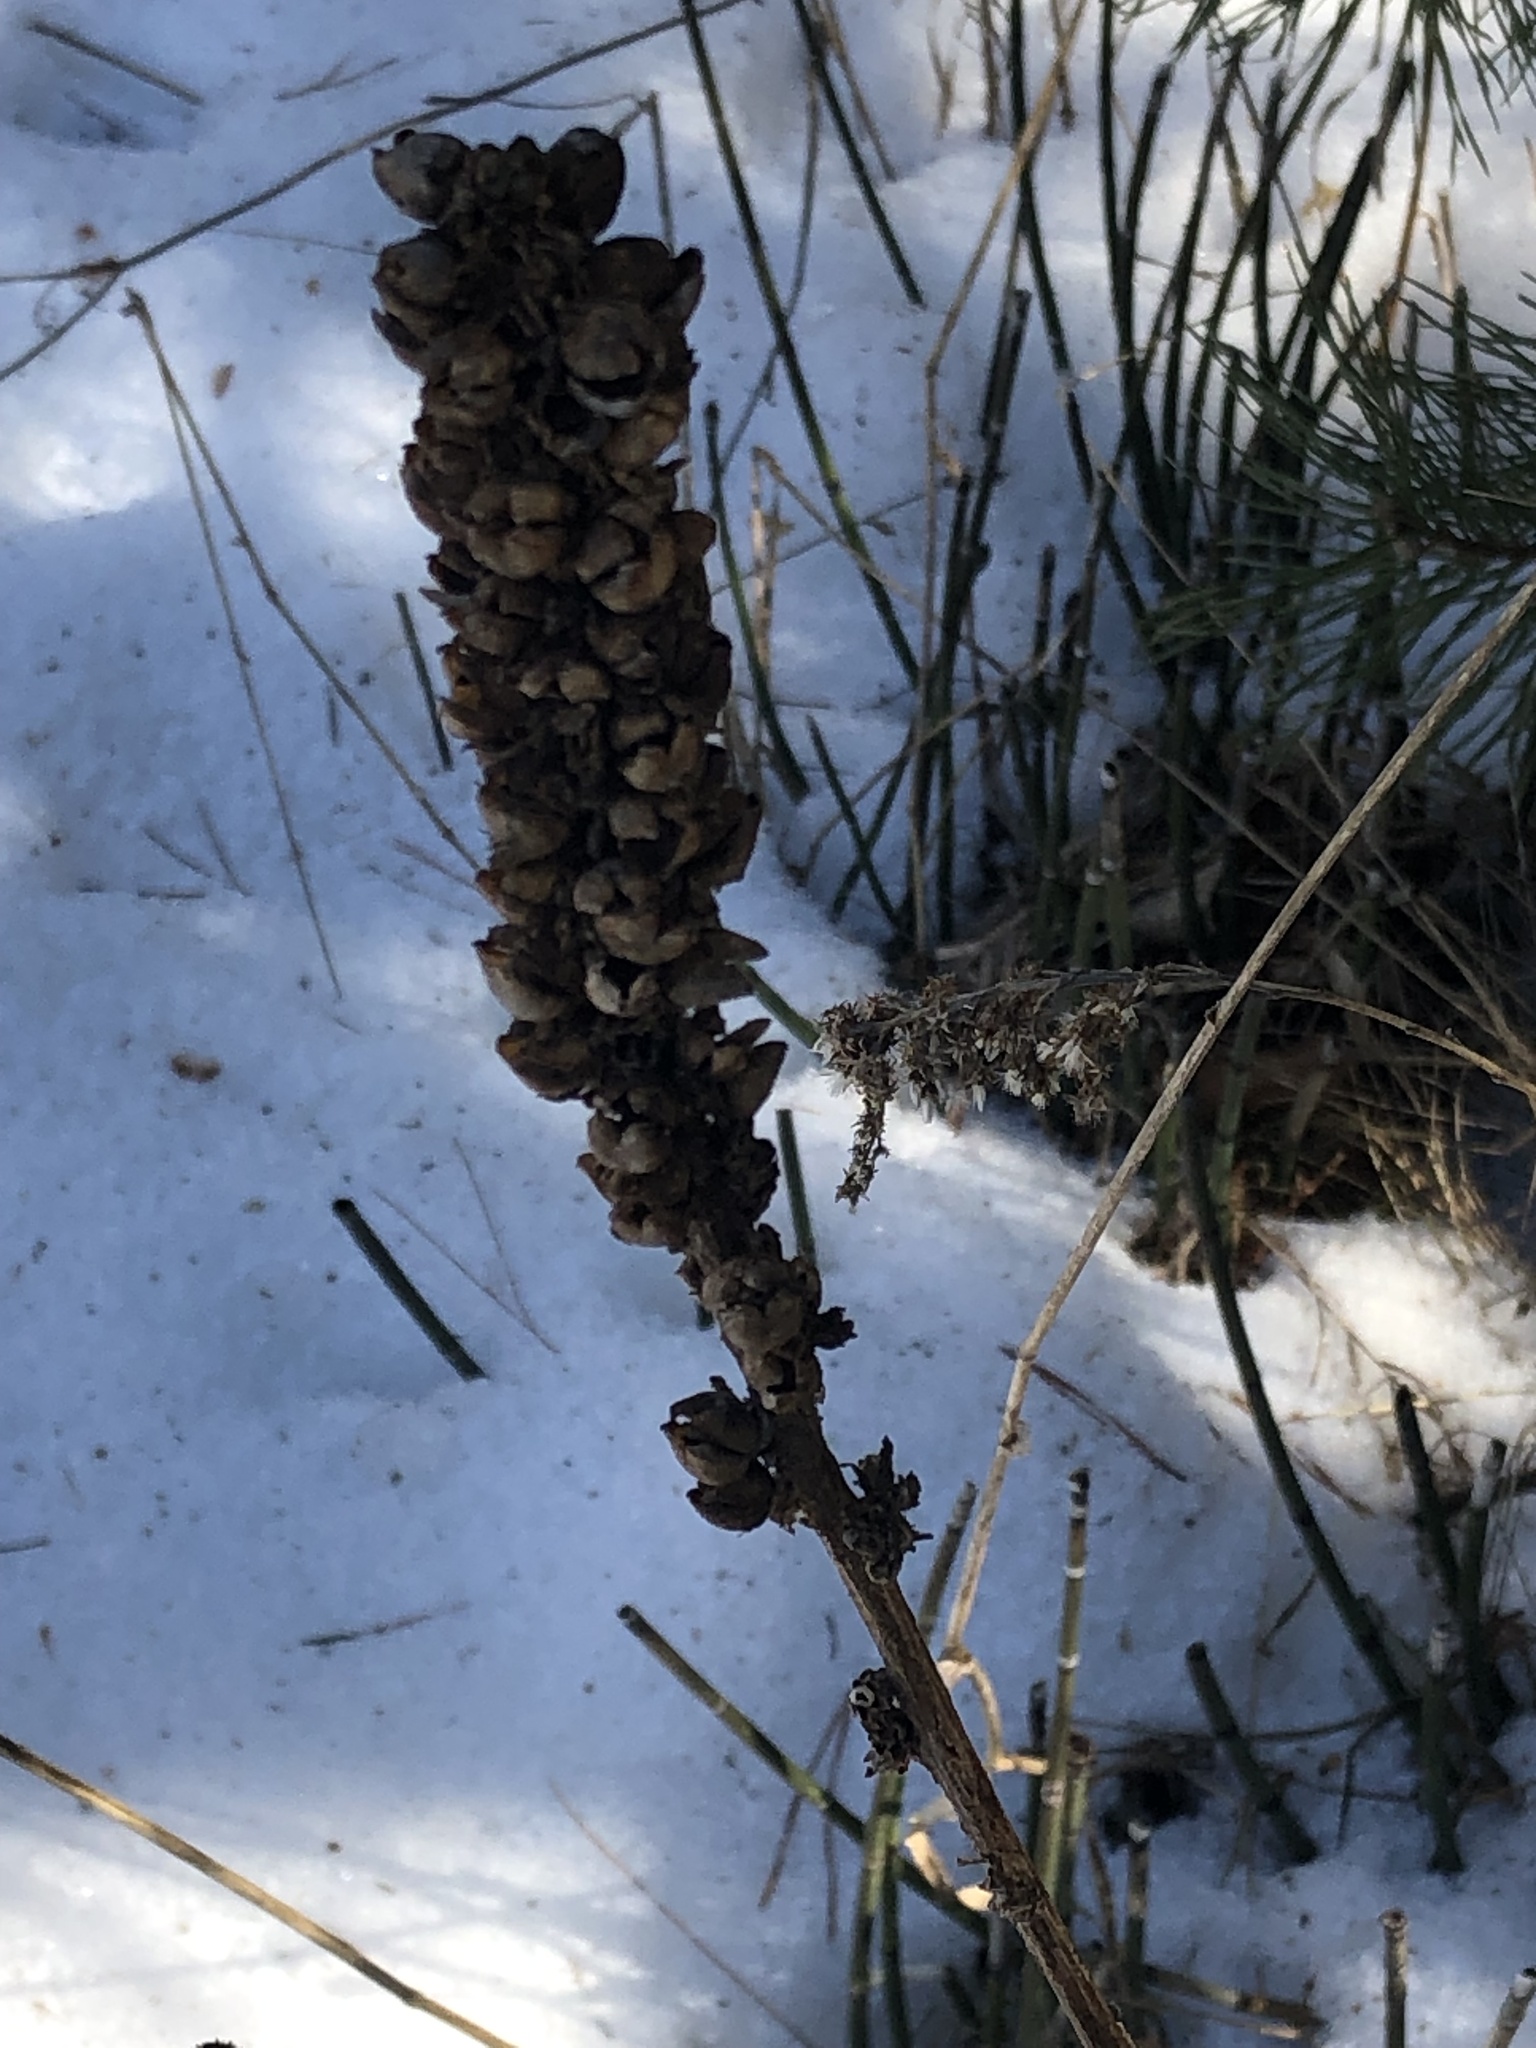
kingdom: Plantae
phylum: Tracheophyta
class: Magnoliopsida
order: Lamiales
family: Scrophulariaceae
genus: Verbascum
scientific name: Verbascum thapsus
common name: Common mullein
